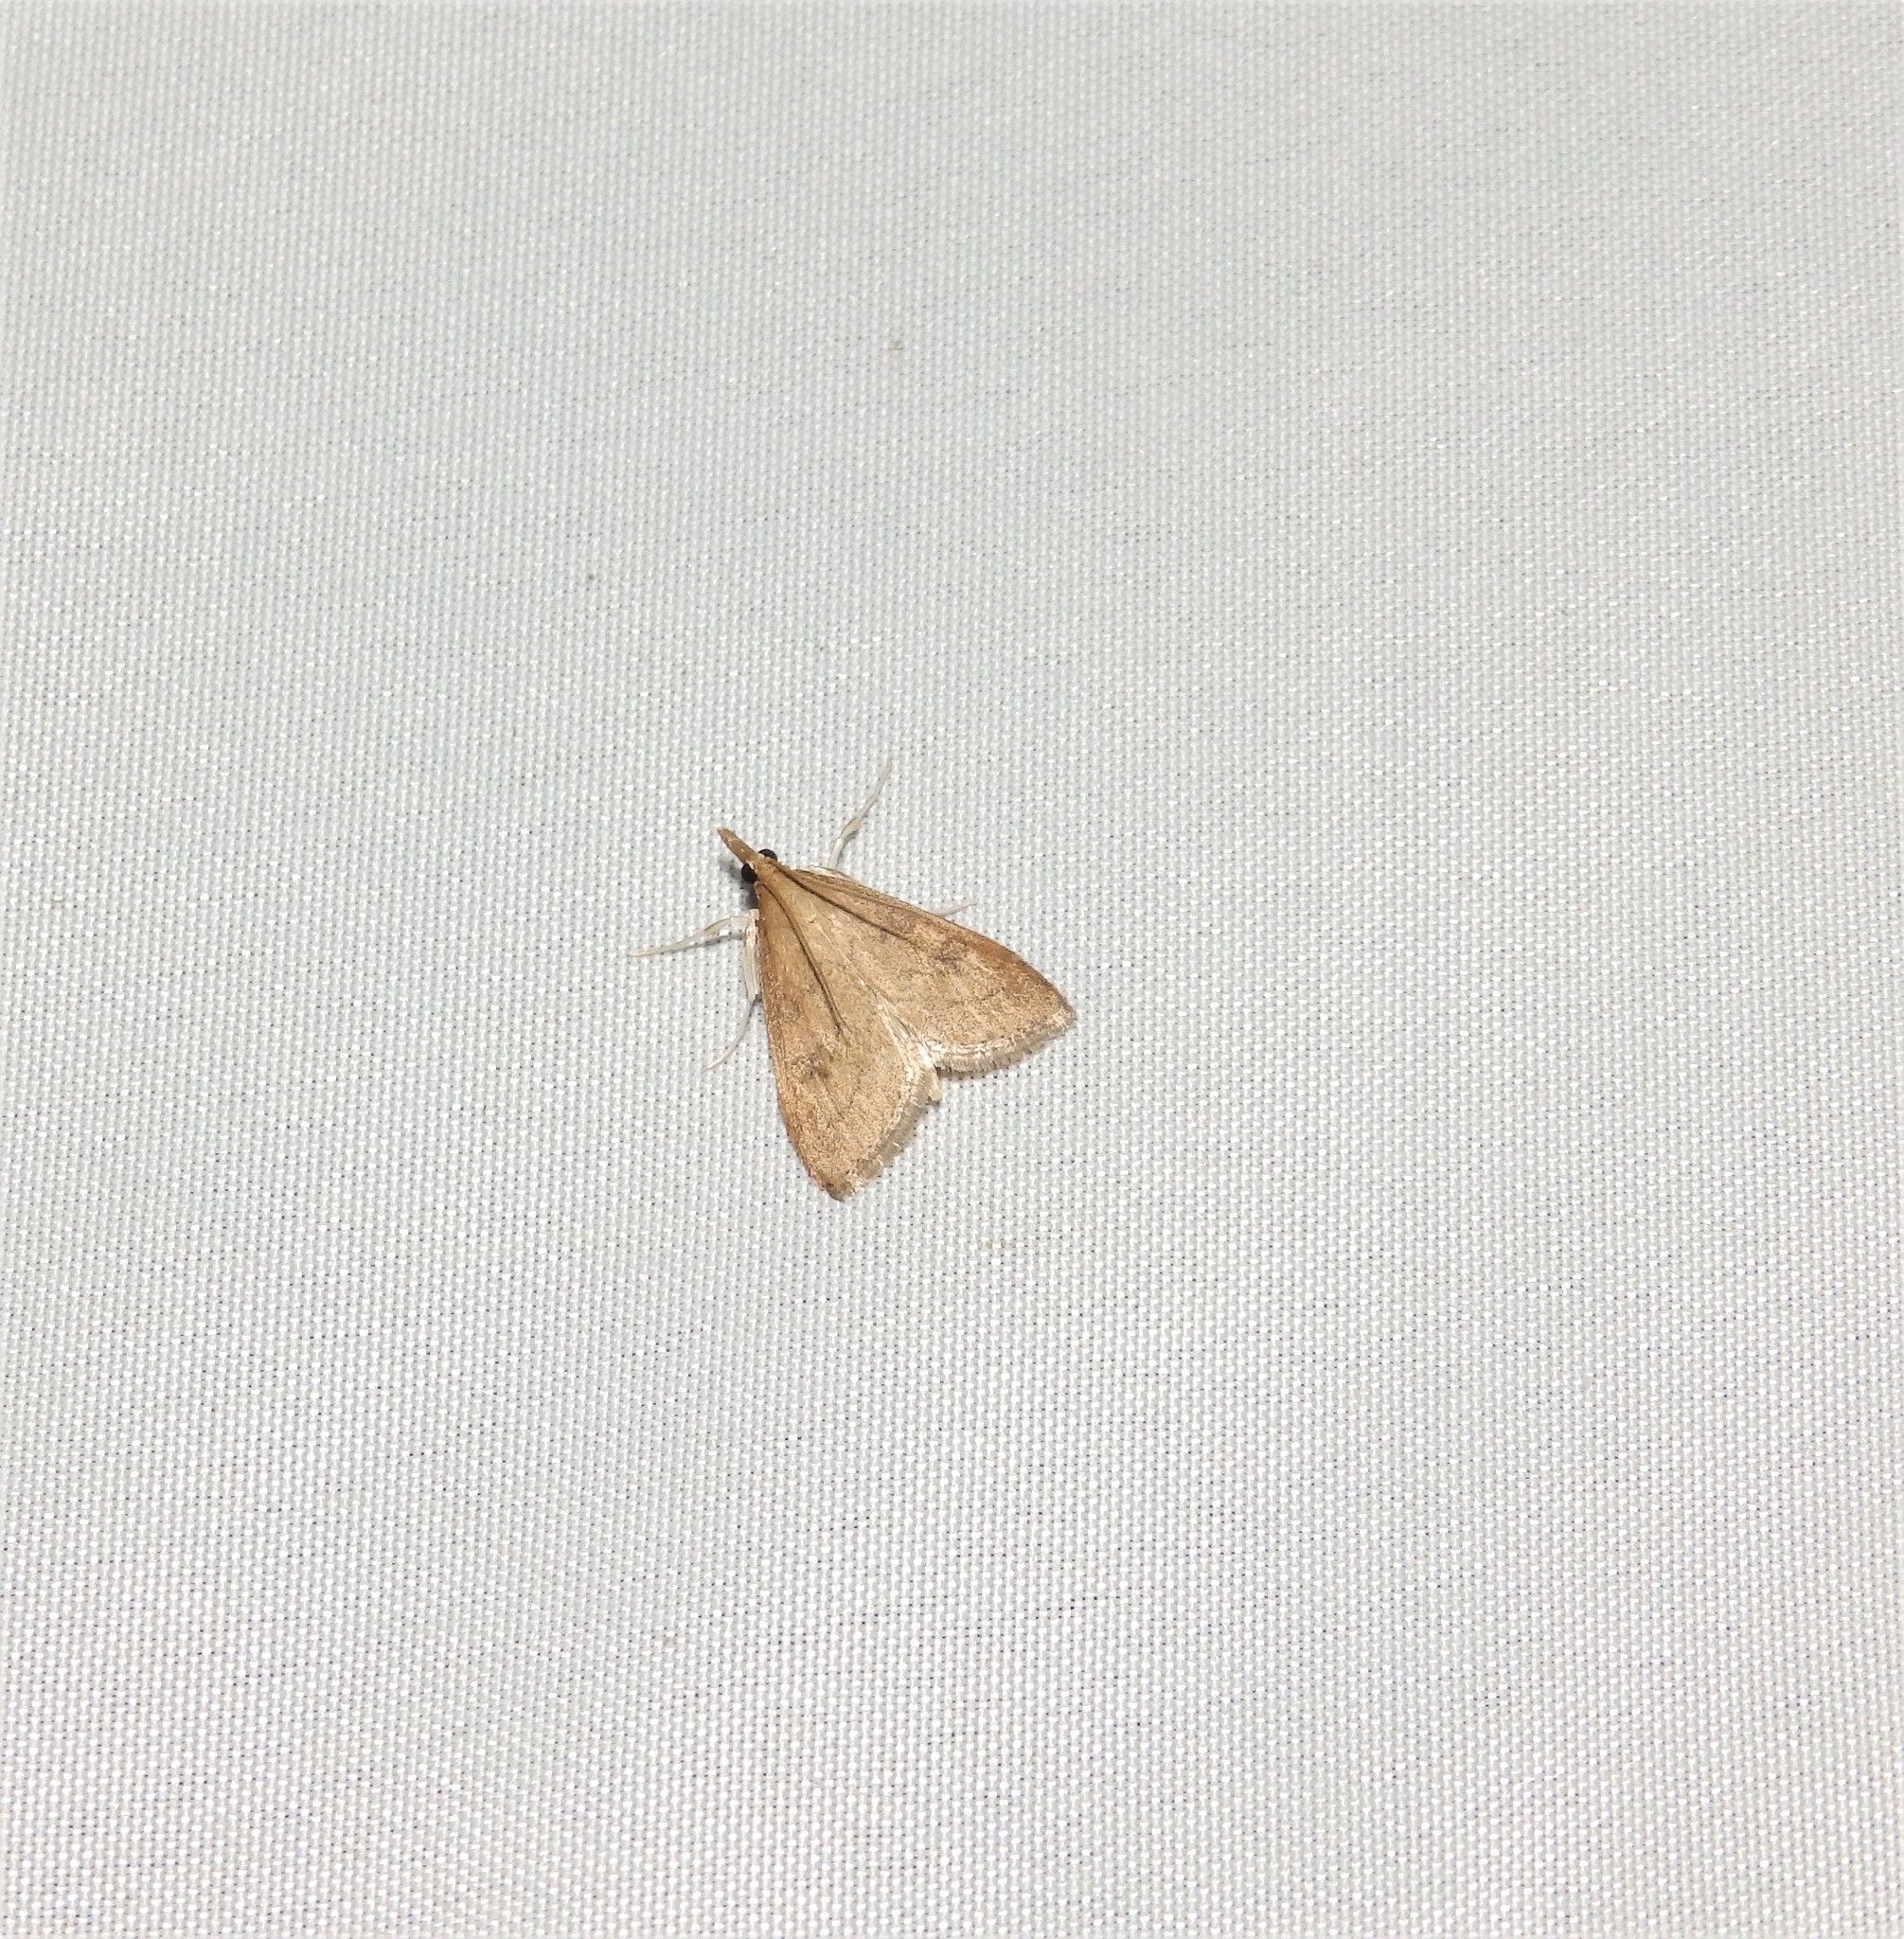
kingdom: Animalia
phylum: Arthropoda
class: Insecta
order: Lepidoptera
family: Crambidae
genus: Udea
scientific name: Udea rubigalis
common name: Celery leaftier moth
